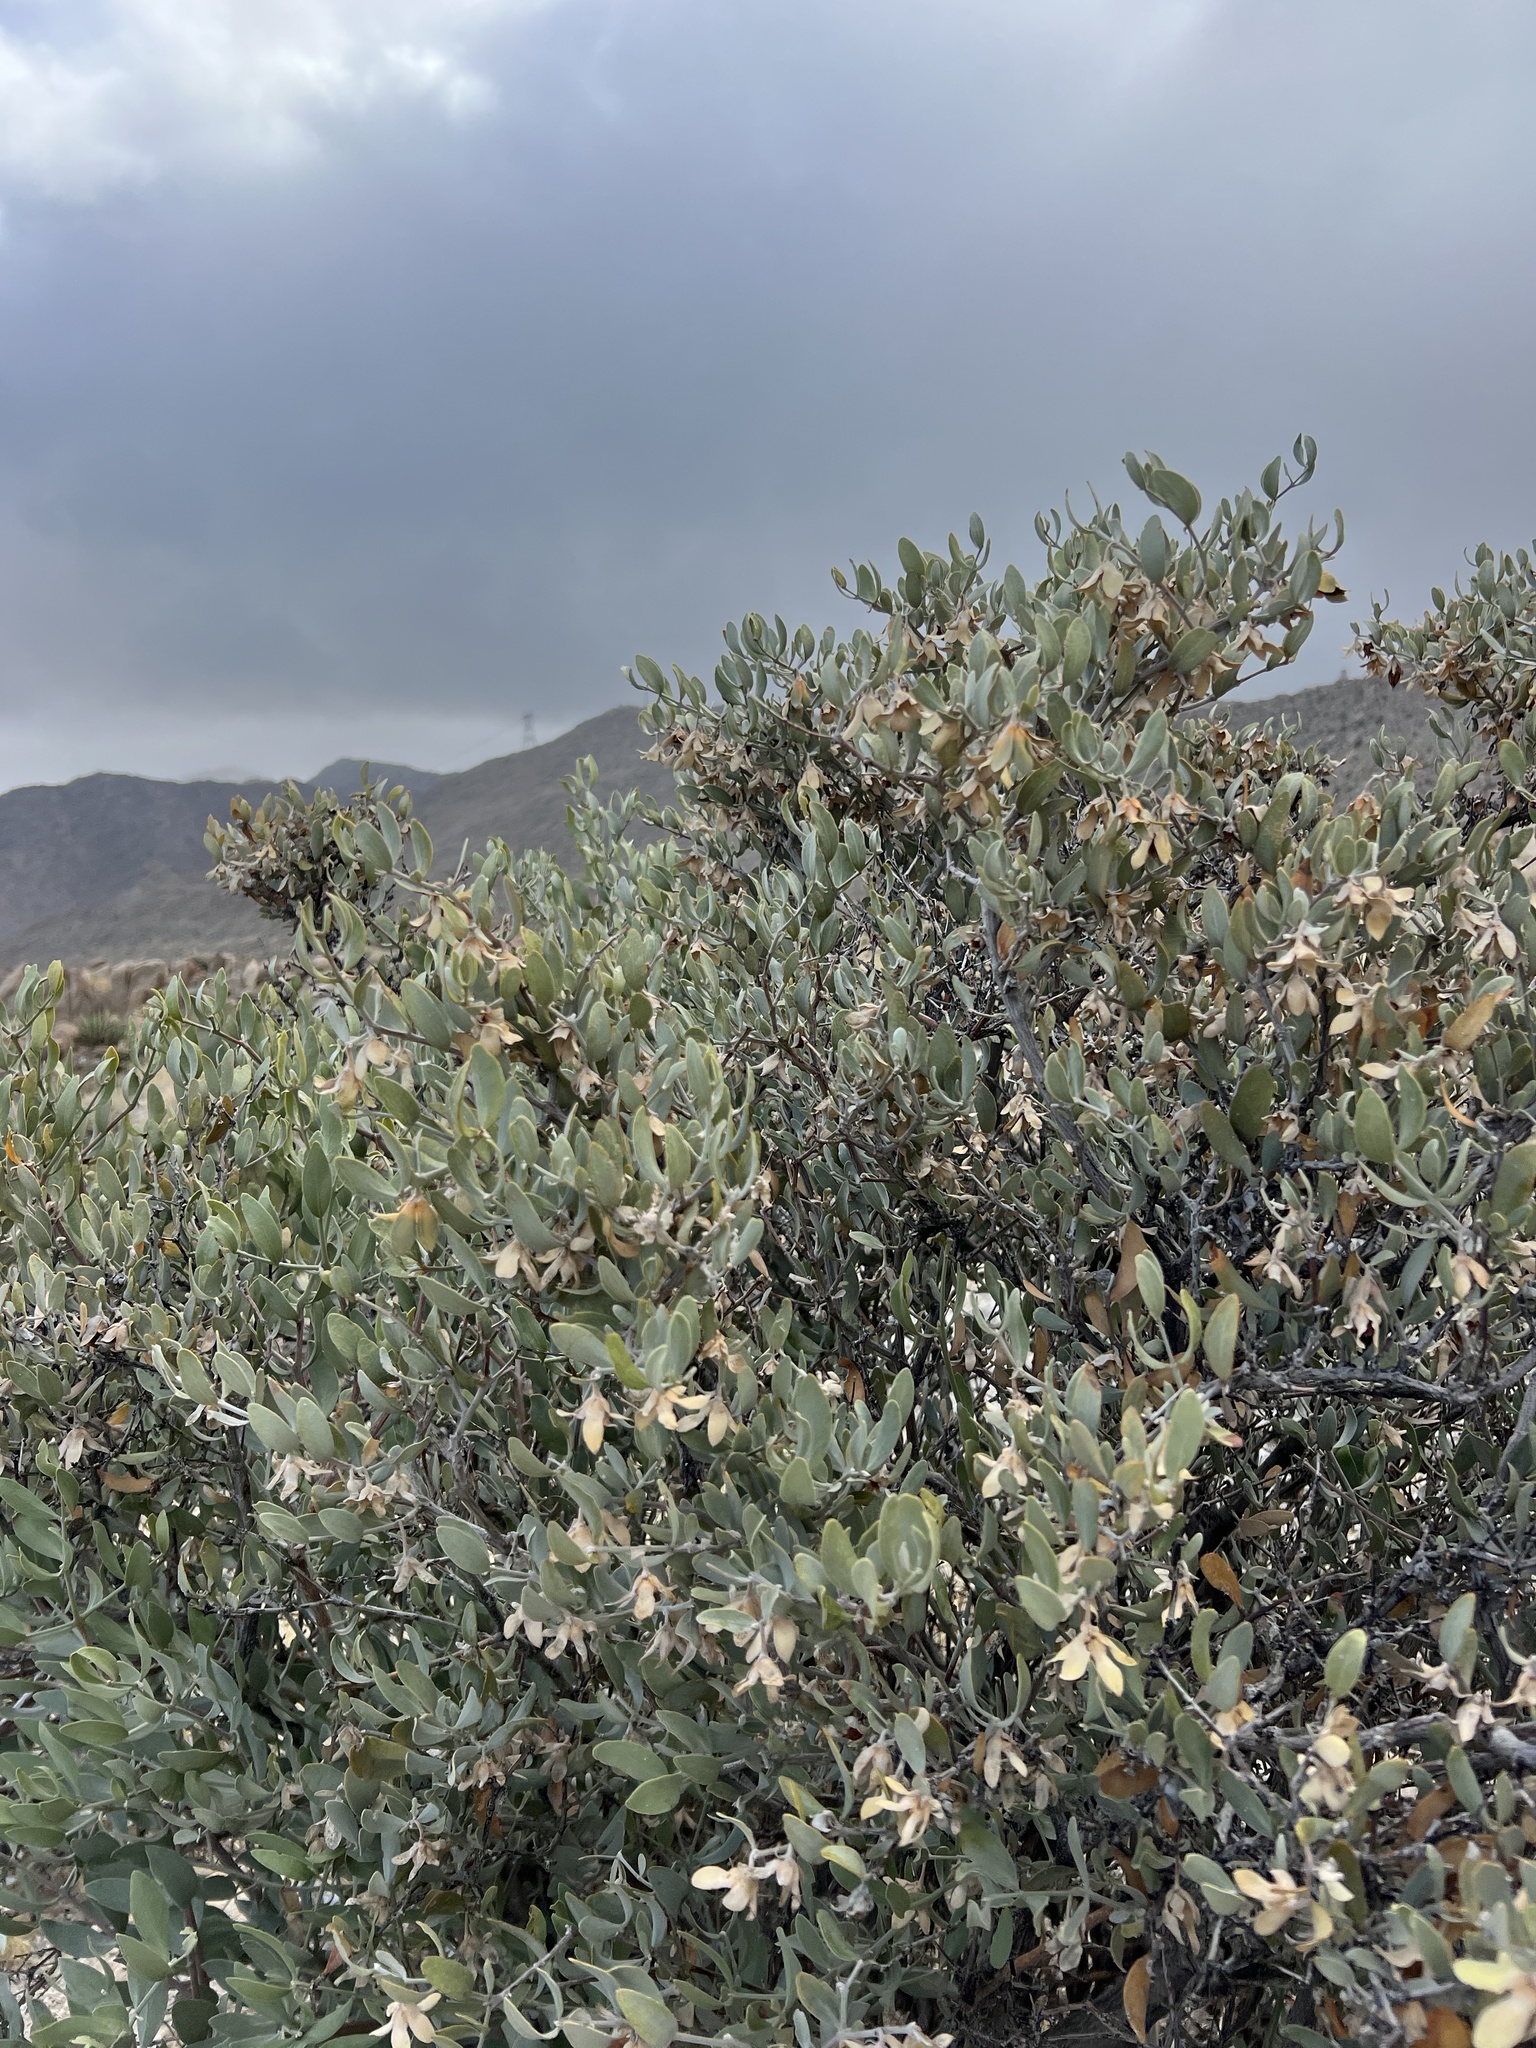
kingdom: Plantae
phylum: Tracheophyta
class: Magnoliopsida
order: Caryophyllales
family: Simmondsiaceae
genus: Simmondsia
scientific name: Simmondsia chinensis
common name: Jojoba
